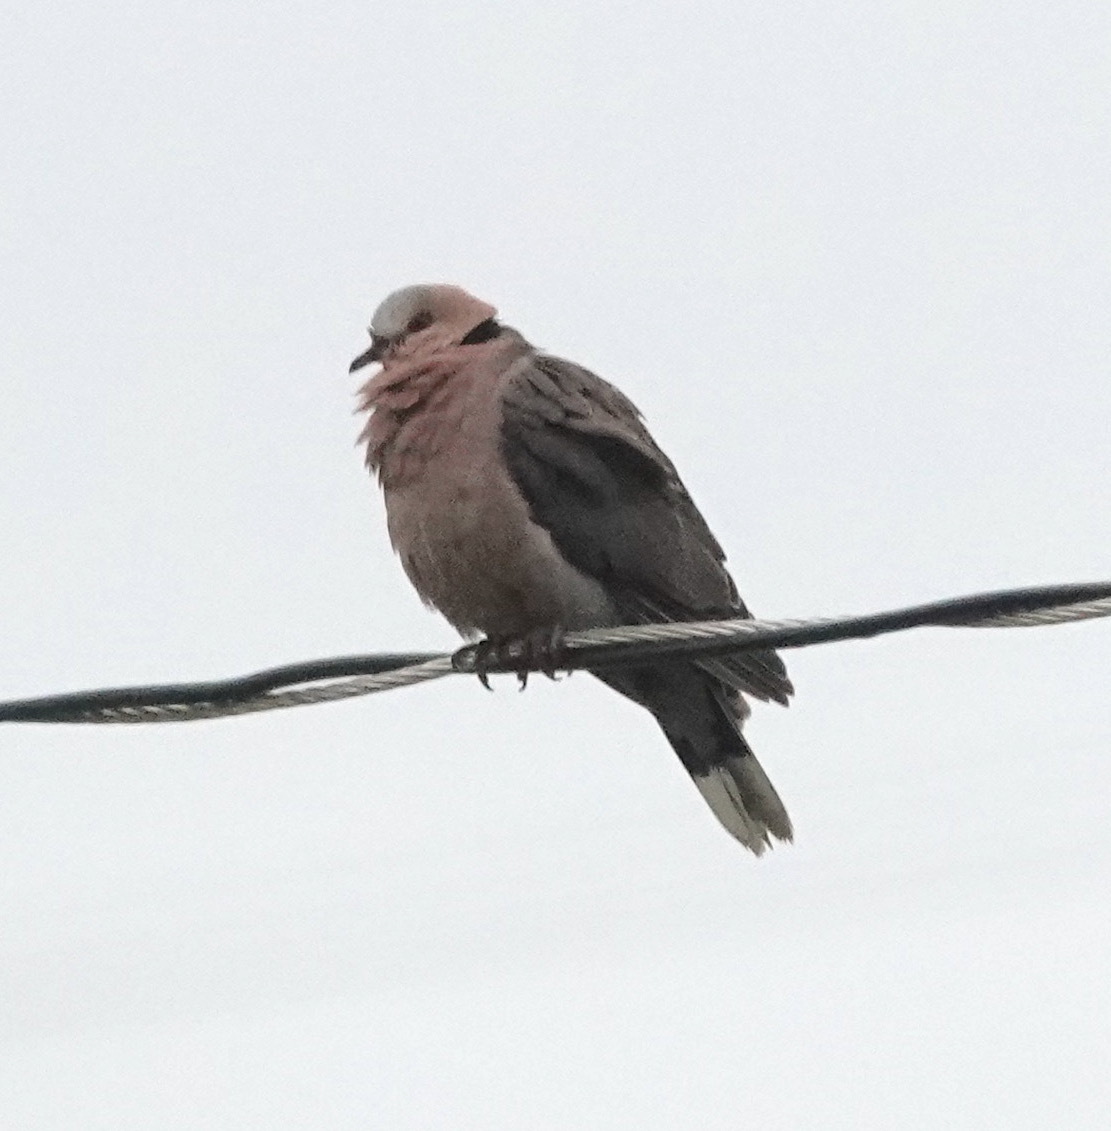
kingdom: Animalia
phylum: Chordata
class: Aves
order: Columbiformes
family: Columbidae
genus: Streptopelia
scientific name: Streptopelia semitorquata
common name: Red-eyed dove
